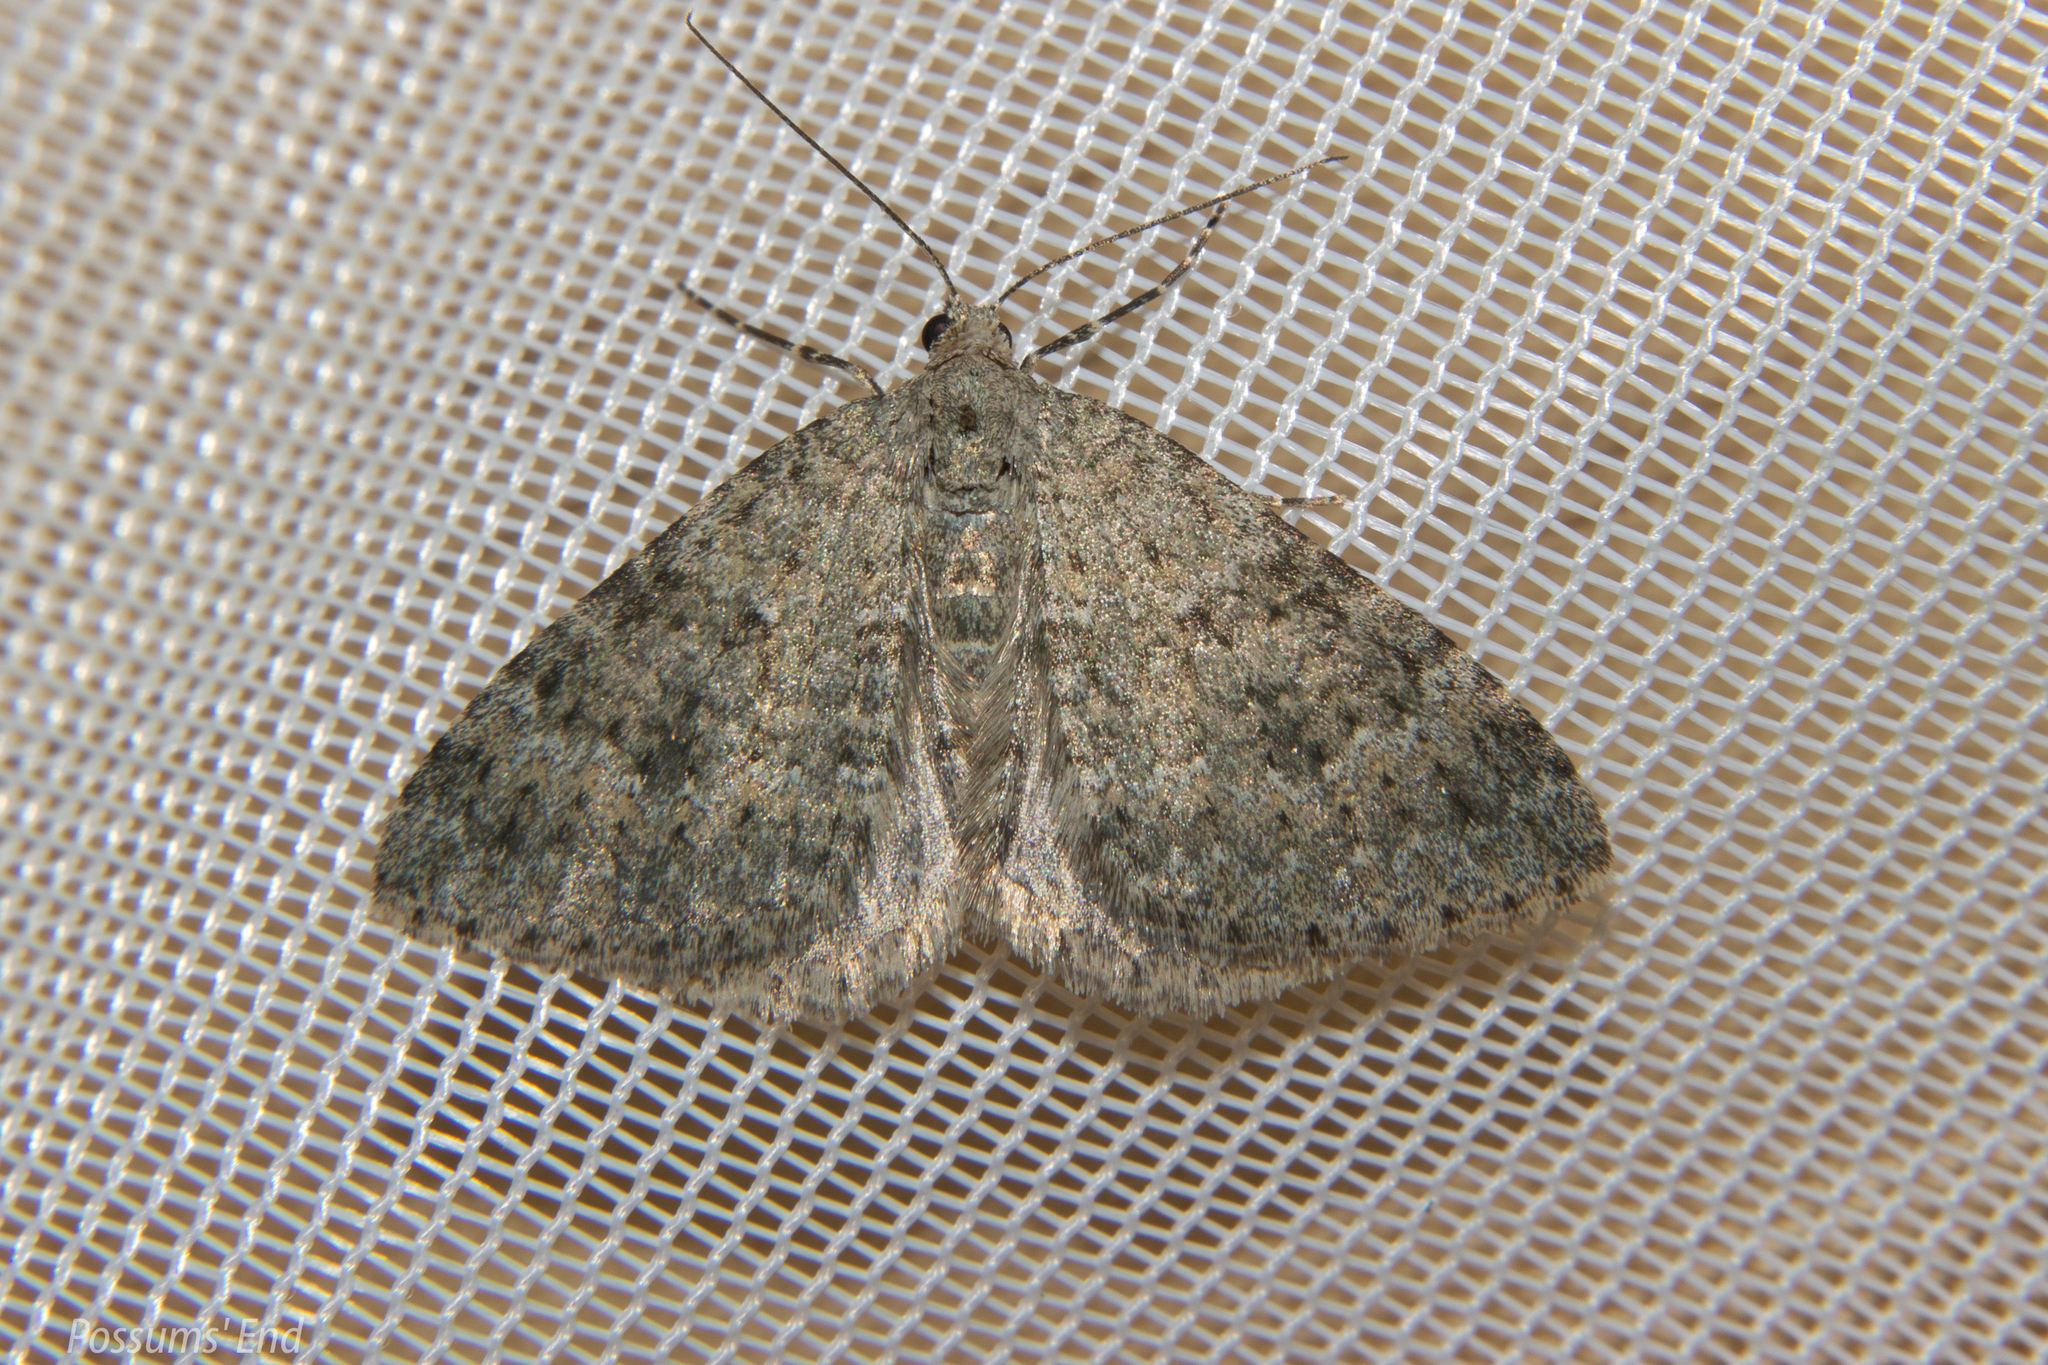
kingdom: Animalia
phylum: Arthropoda
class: Insecta
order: Lepidoptera
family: Geometridae
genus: Helastia
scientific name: Helastia corcularia
